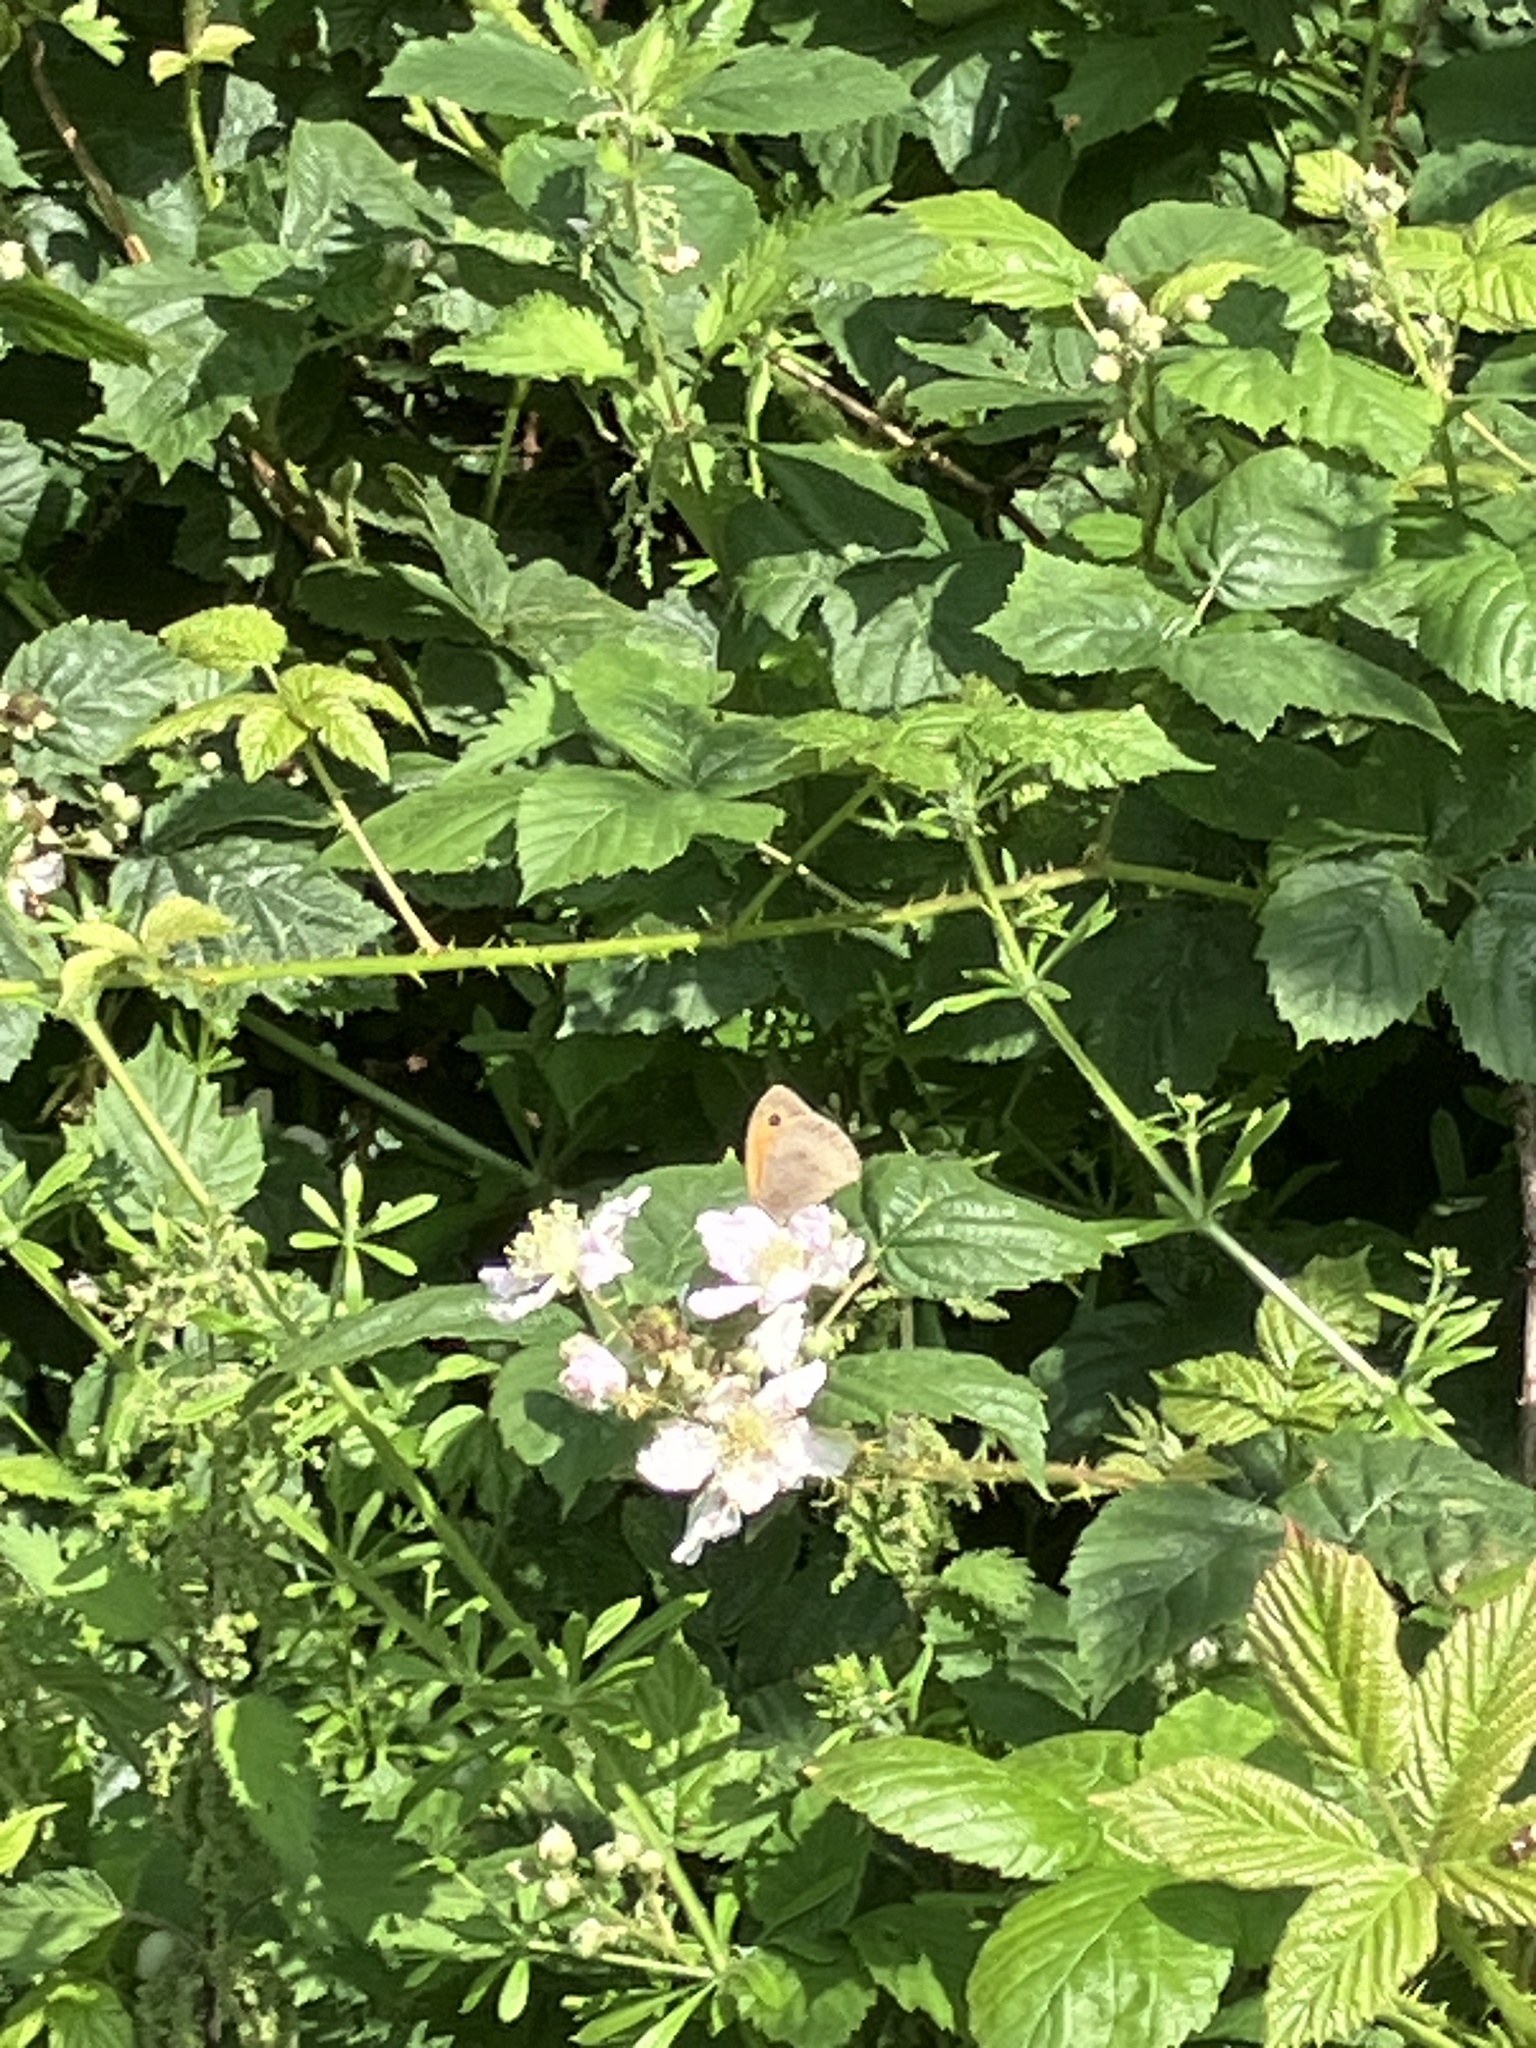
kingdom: Animalia
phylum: Arthropoda
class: Insecta
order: Lepidoptera
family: Nymphalidae
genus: Maniola
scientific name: Maniola jurtina
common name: Meadow brown
